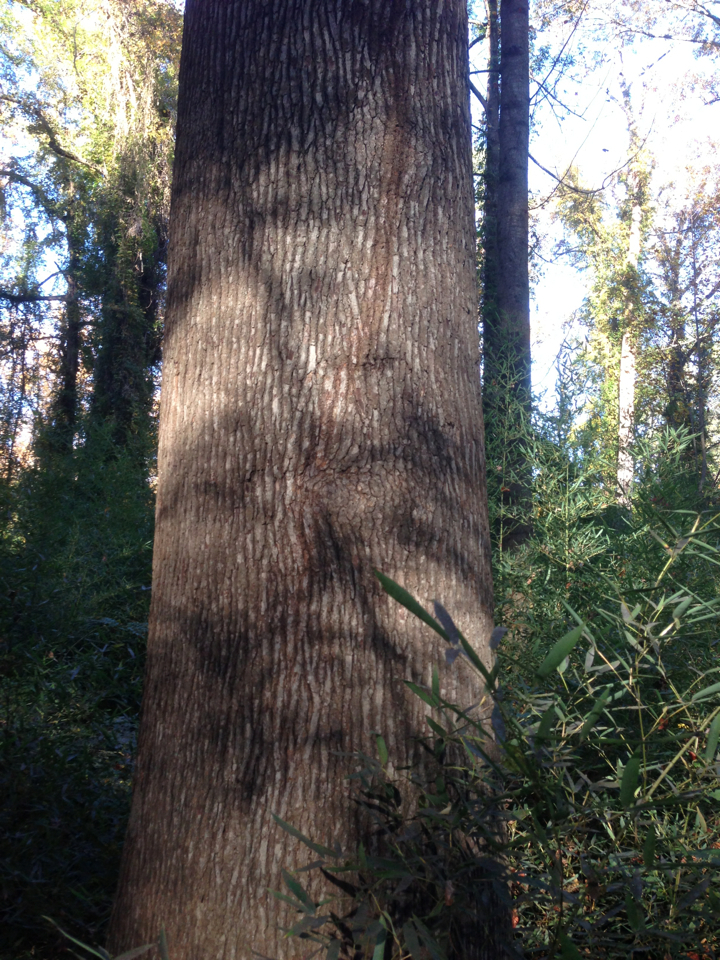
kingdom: Plantae
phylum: Tracheophyta
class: Magnoliopsida
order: Saxifragales
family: Altingiaceae
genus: Liquidambar
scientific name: Liquidambar styraciflua
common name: Sweet gum
